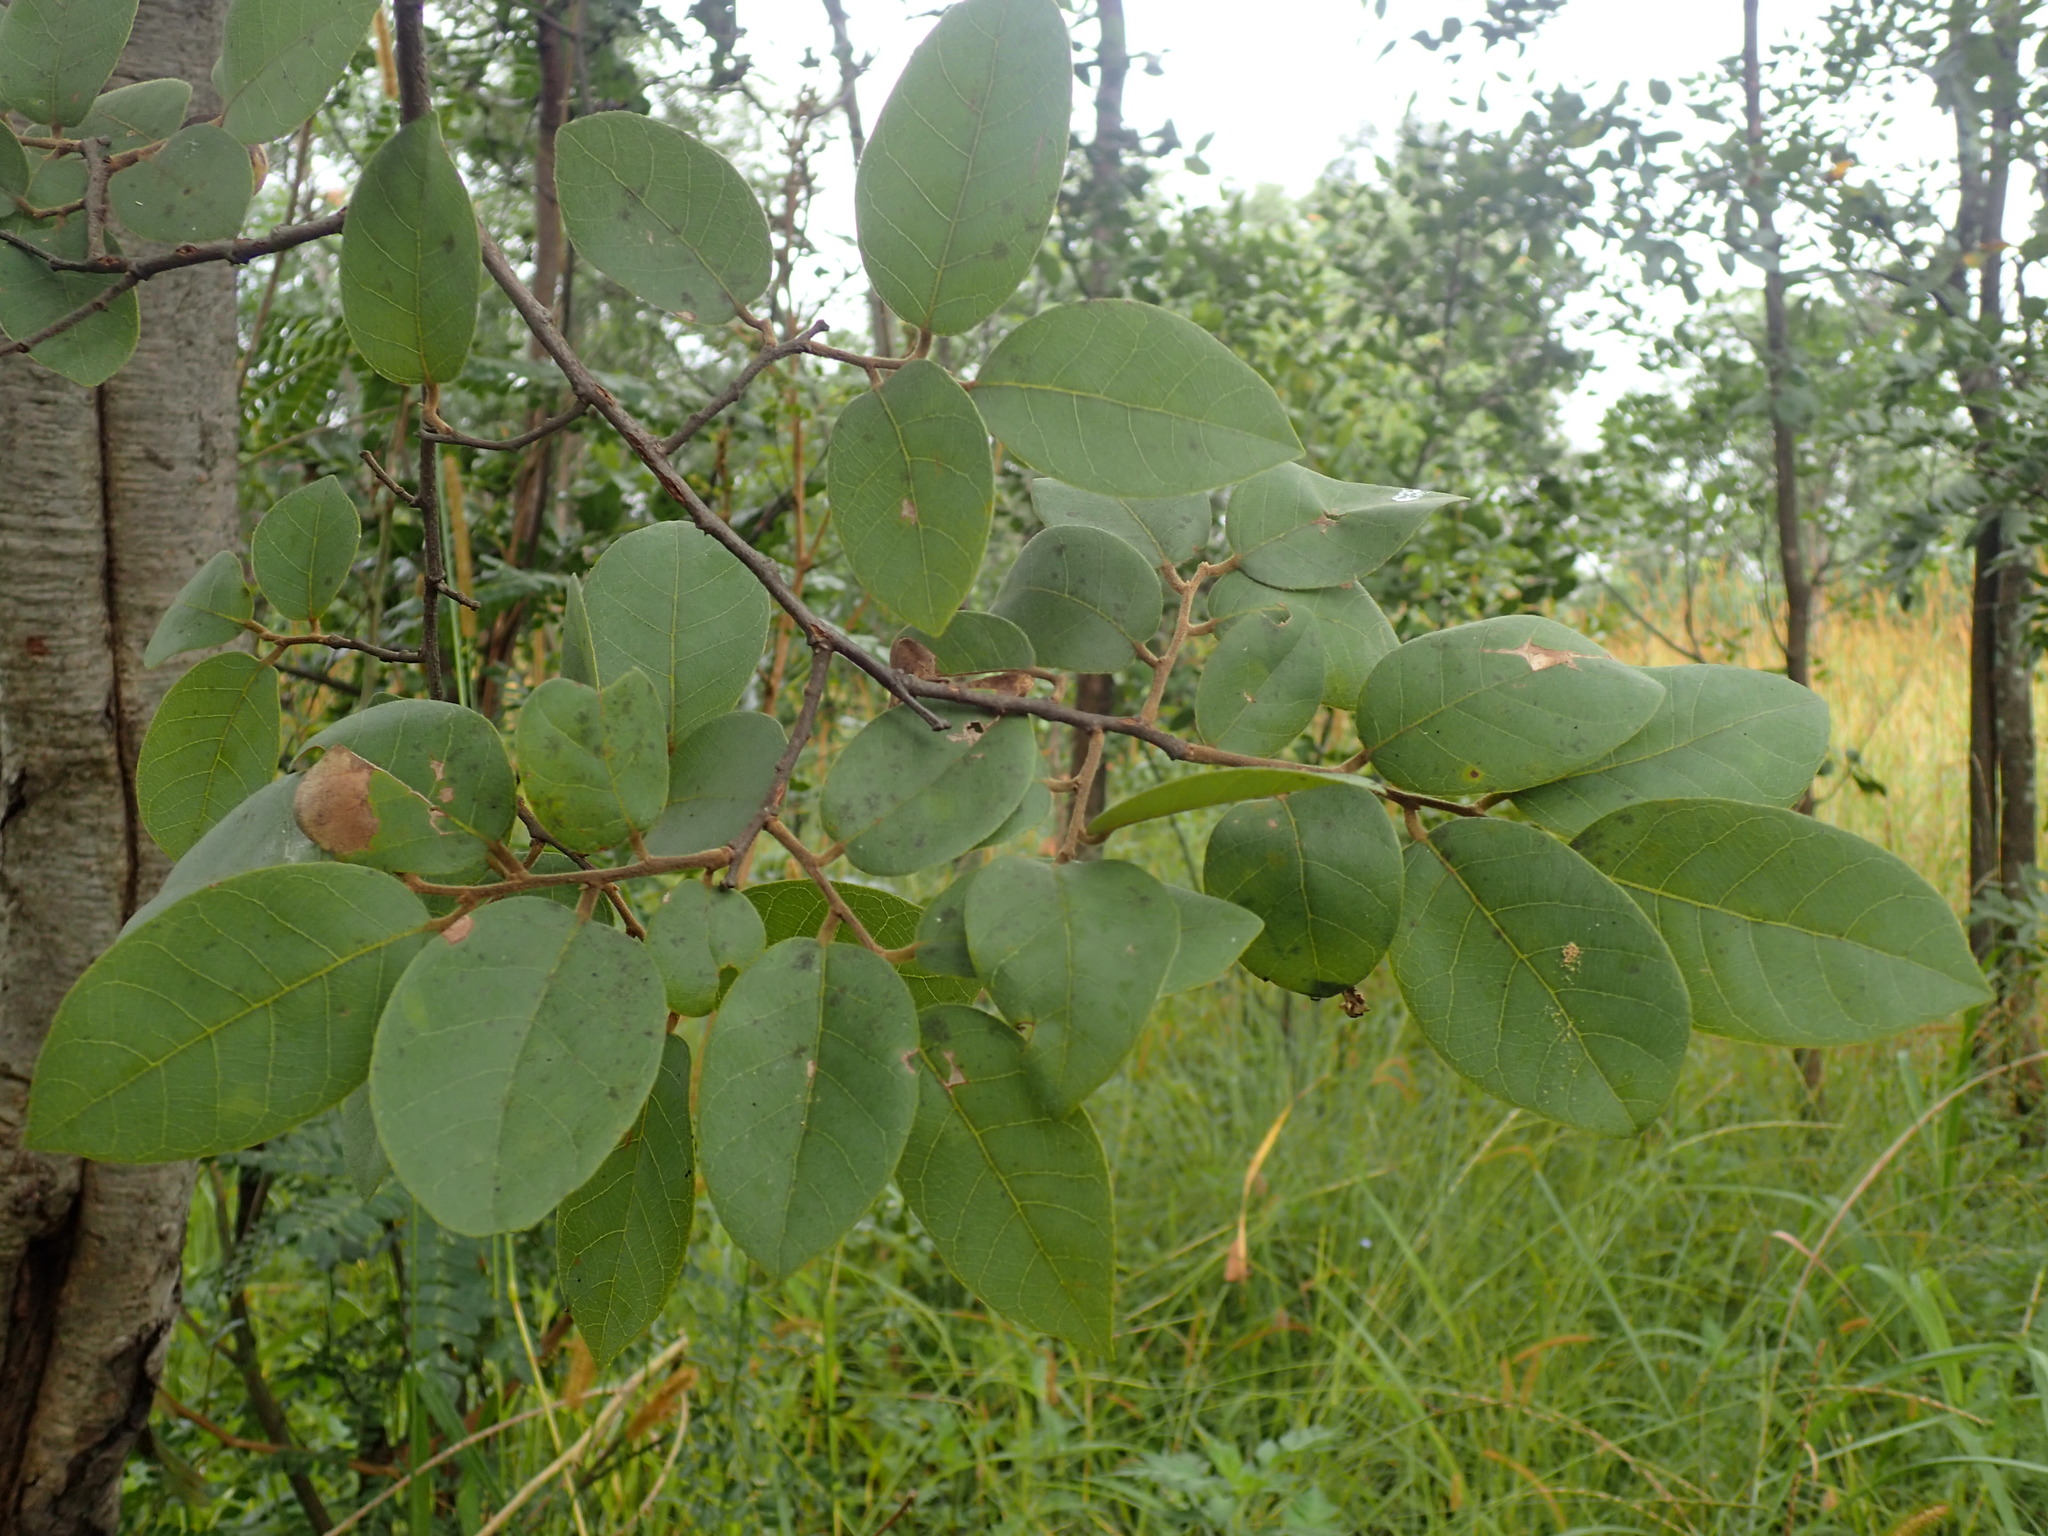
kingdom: Plantae
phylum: Tracheophyta
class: Magnoliopsida
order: Malpighiales
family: Phyllanthaceae
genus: Pseudolachnostylis
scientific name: Pseudolachnostylis maprouneifolia
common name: Kudu berry
